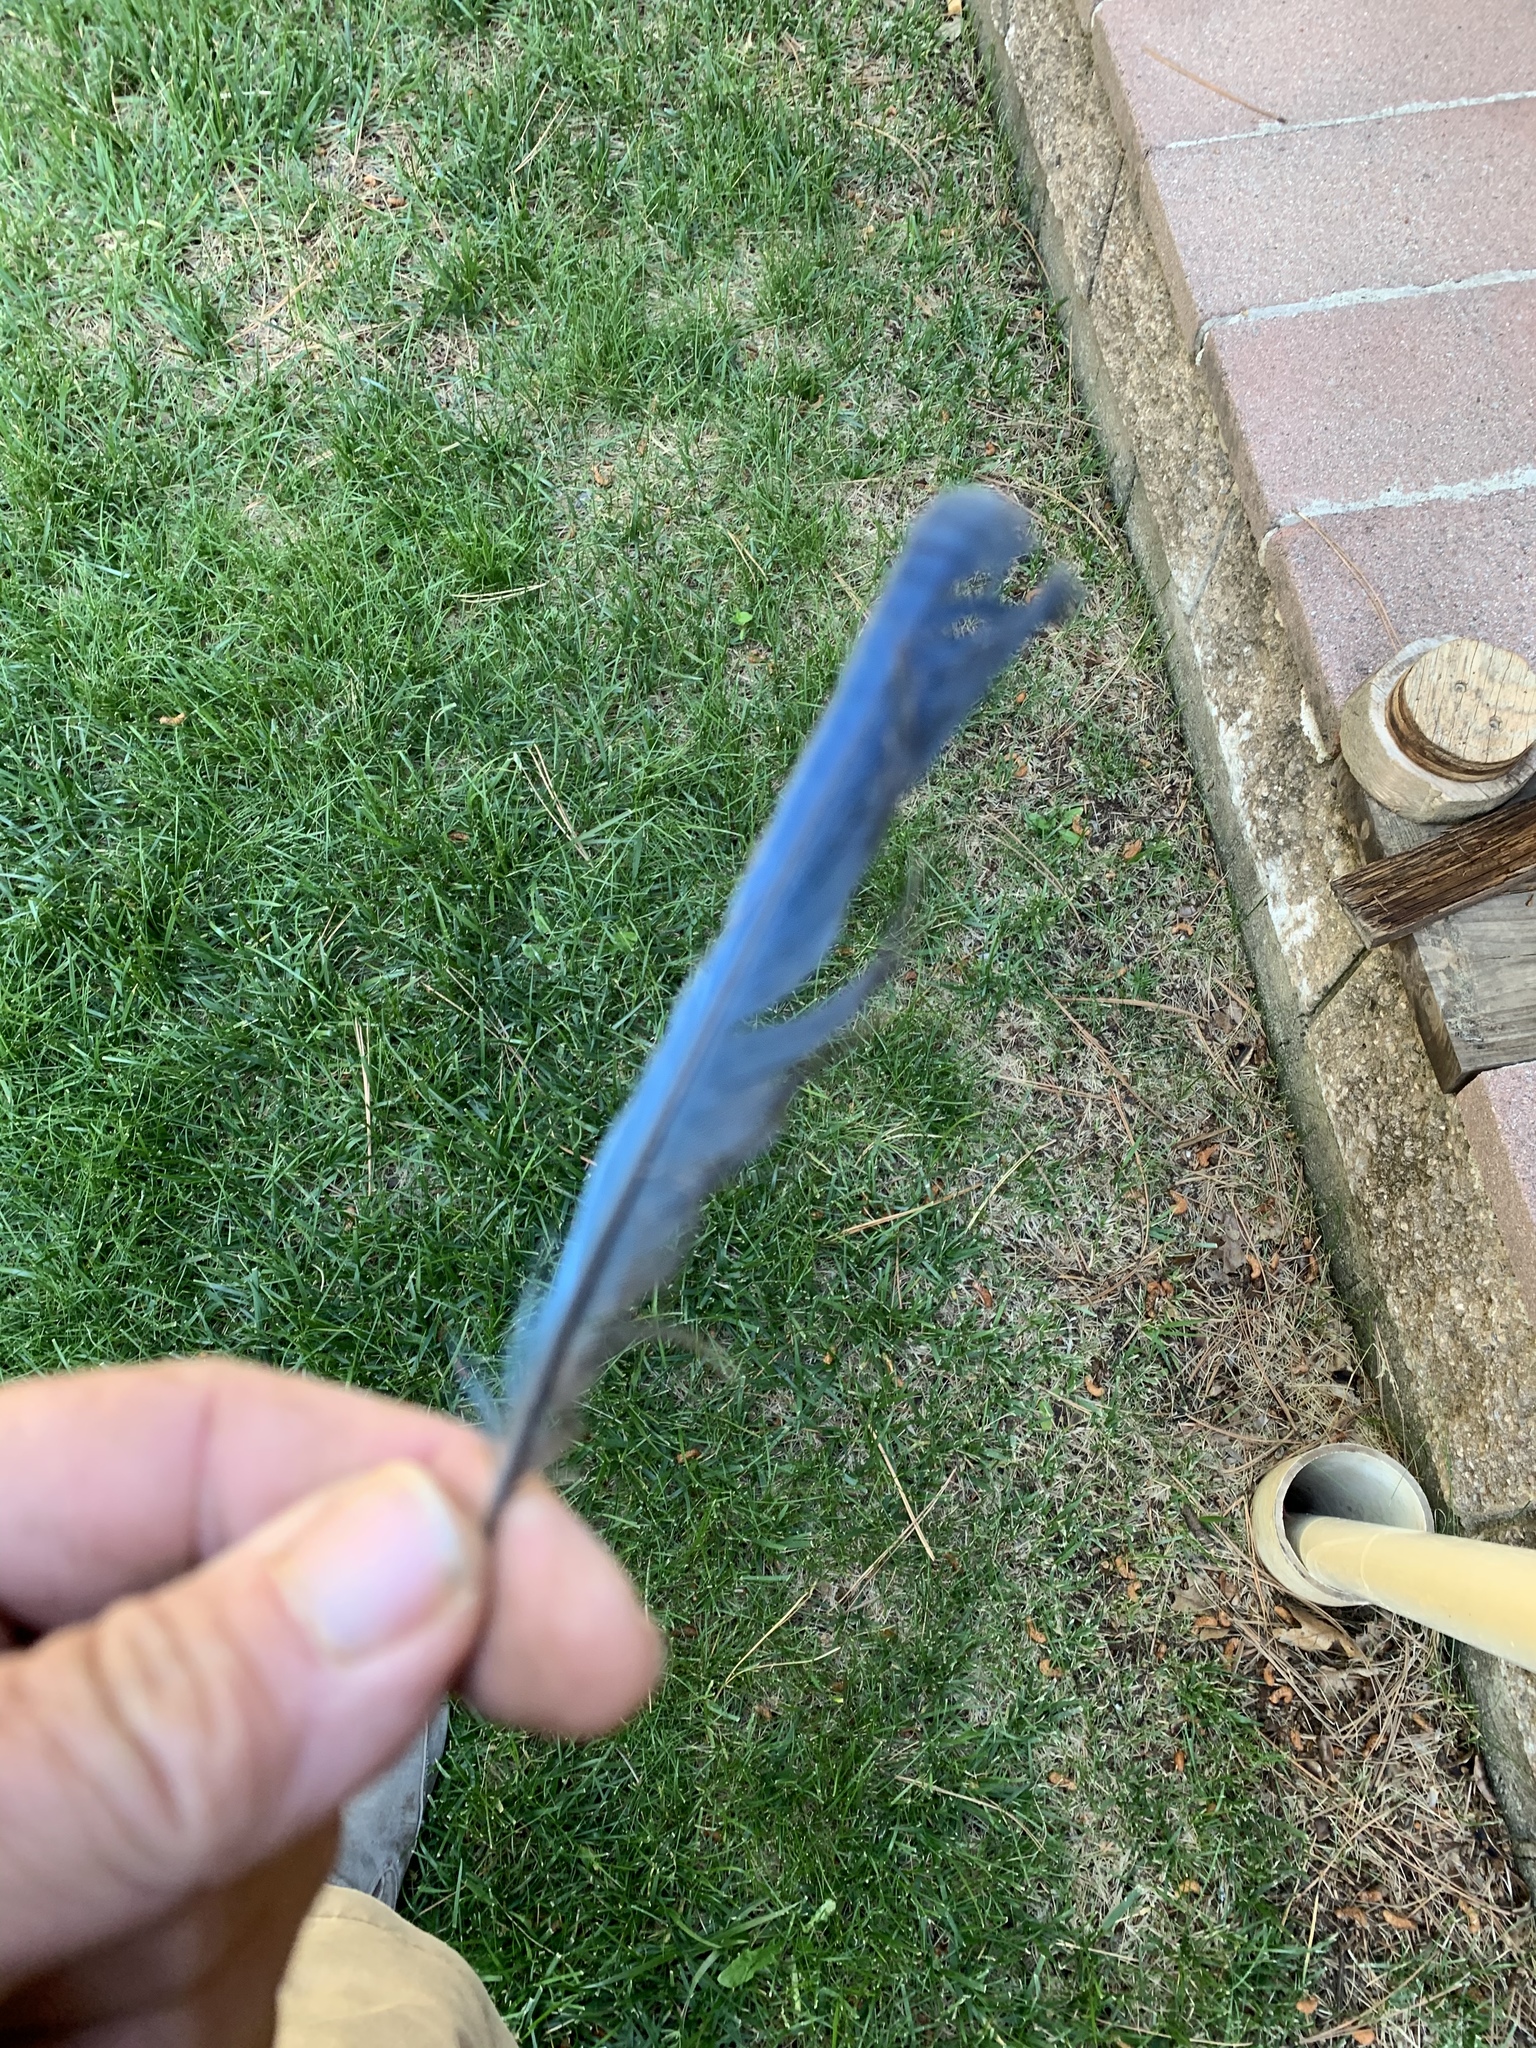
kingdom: Animalia
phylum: Chordata
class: Aves
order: Passeriformes
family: Corvidae
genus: Cyanocitta
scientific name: Cyanocitta stelleri
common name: Steller's jay
